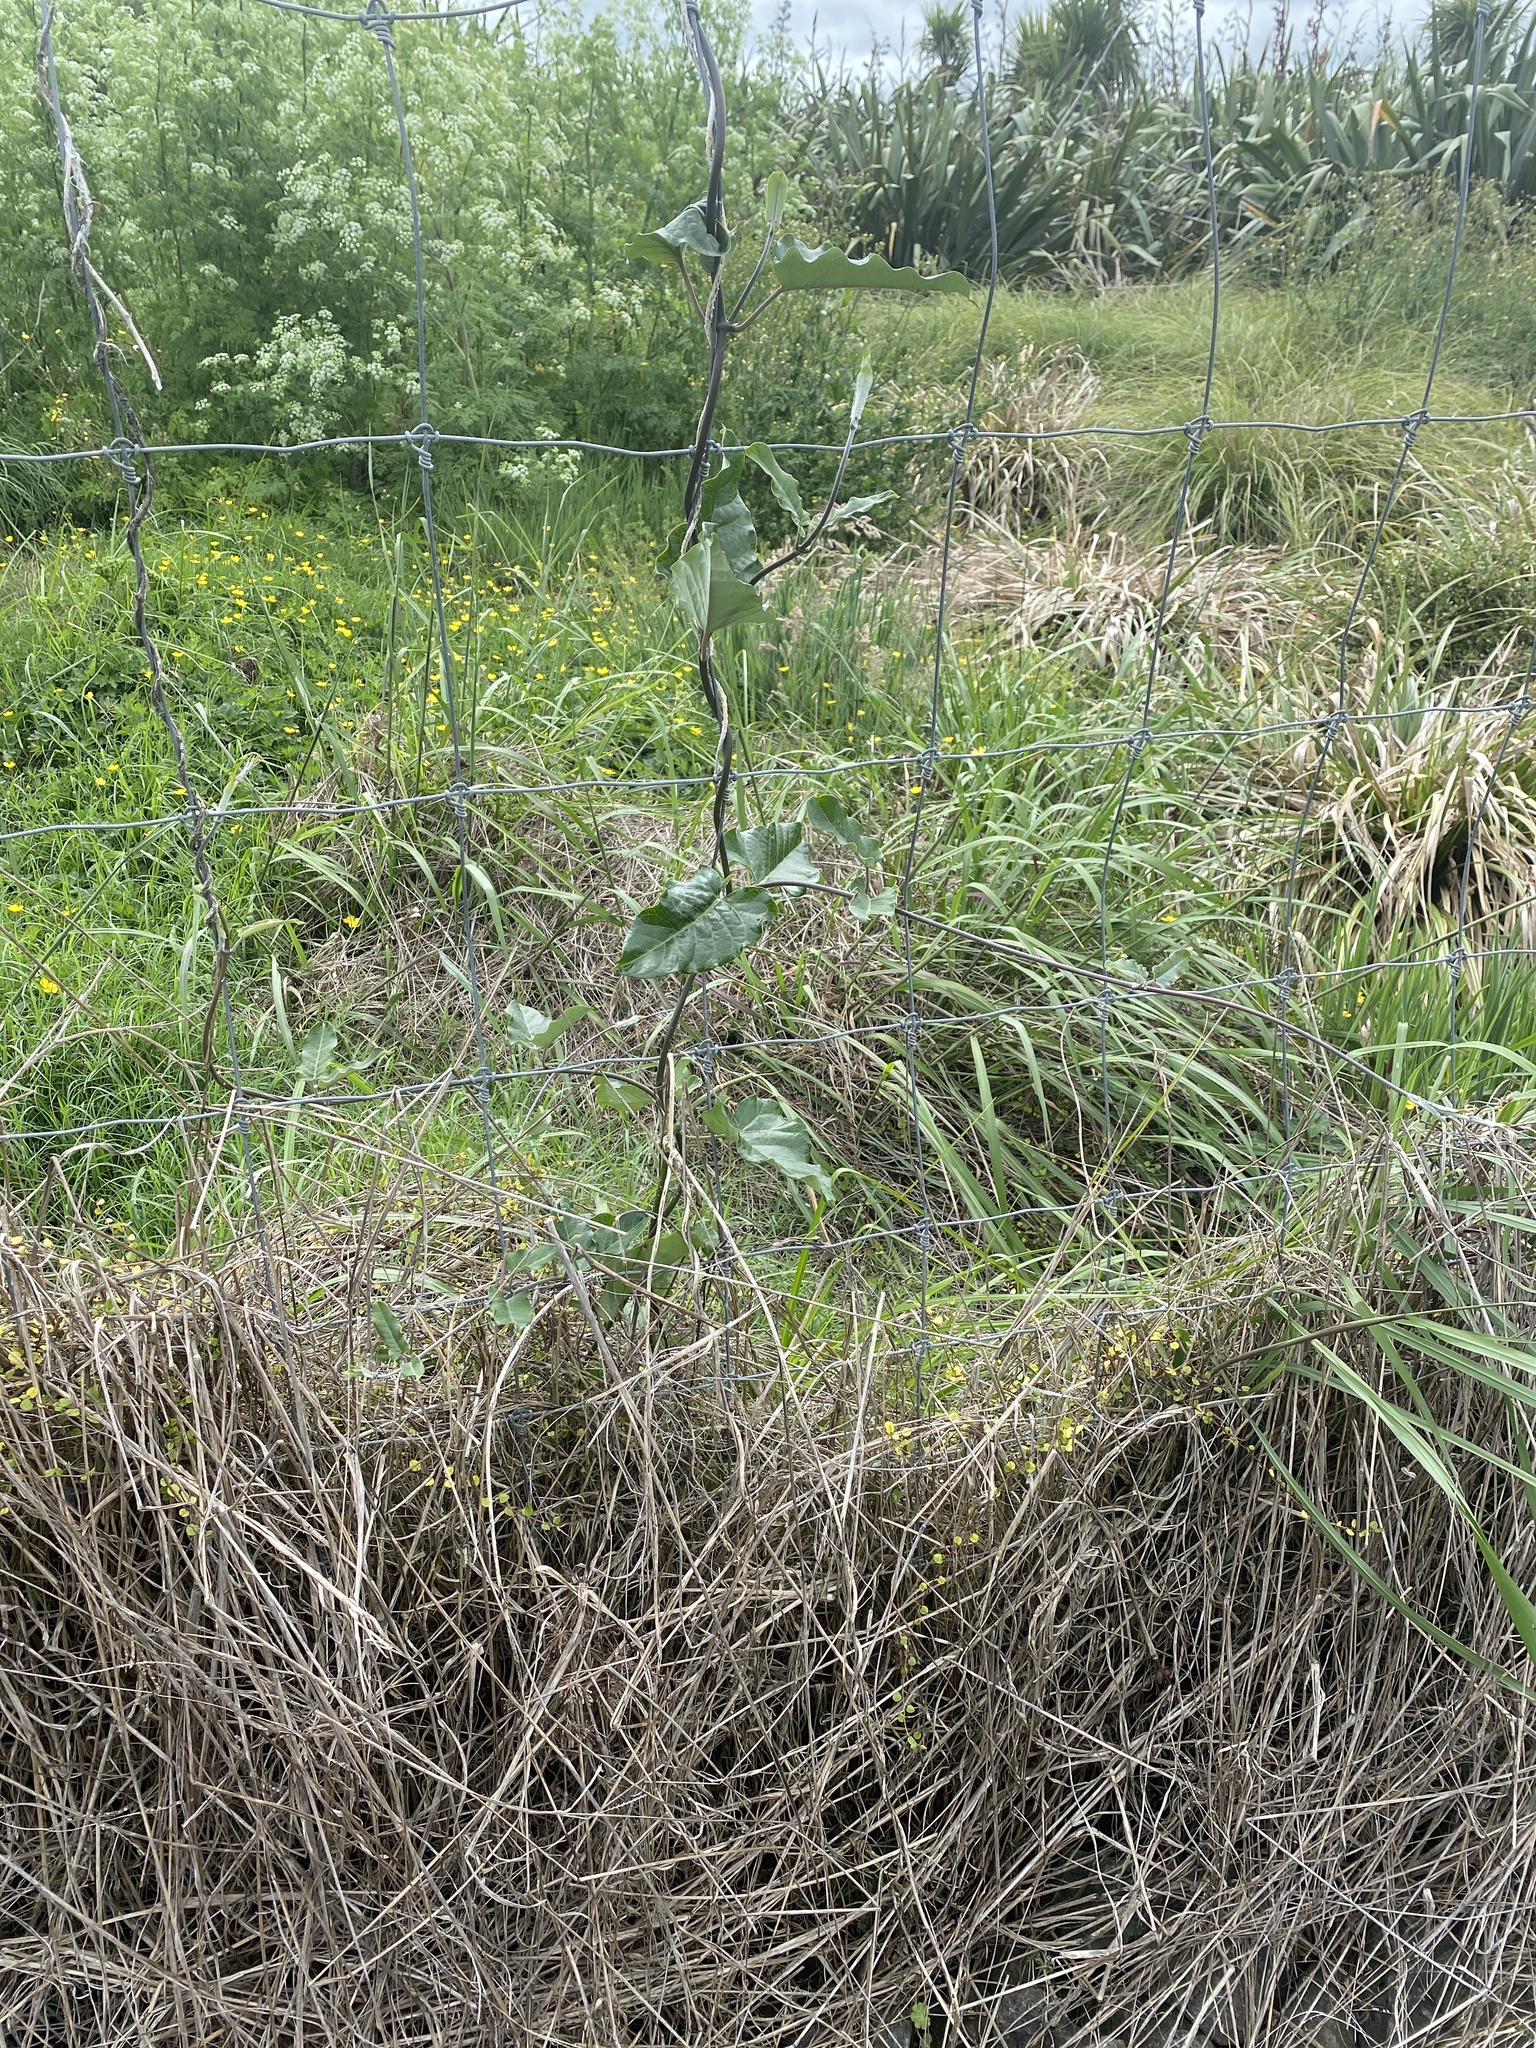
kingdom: Plantae
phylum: Tracheophyta
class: Magnoliopsida
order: Gentianales
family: Apocynaceae
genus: Araujia
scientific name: Araujia sericifera
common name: White bladderflower
